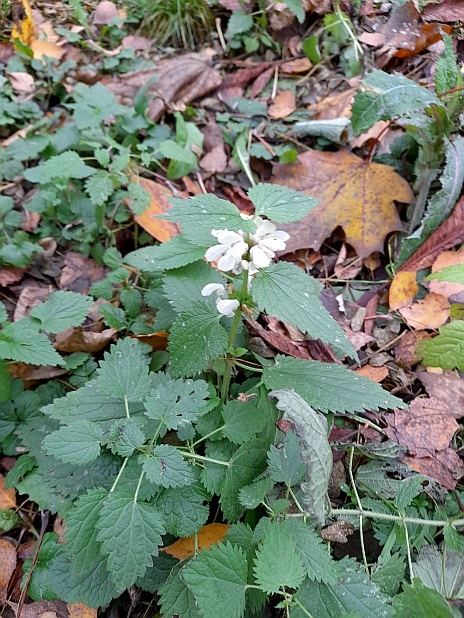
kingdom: Plantae
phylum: Tracheophyta
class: Magnoliopsida
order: Lamiales
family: Lamiaceae
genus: Lamium
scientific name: Lamium album
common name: White dead-nettle
